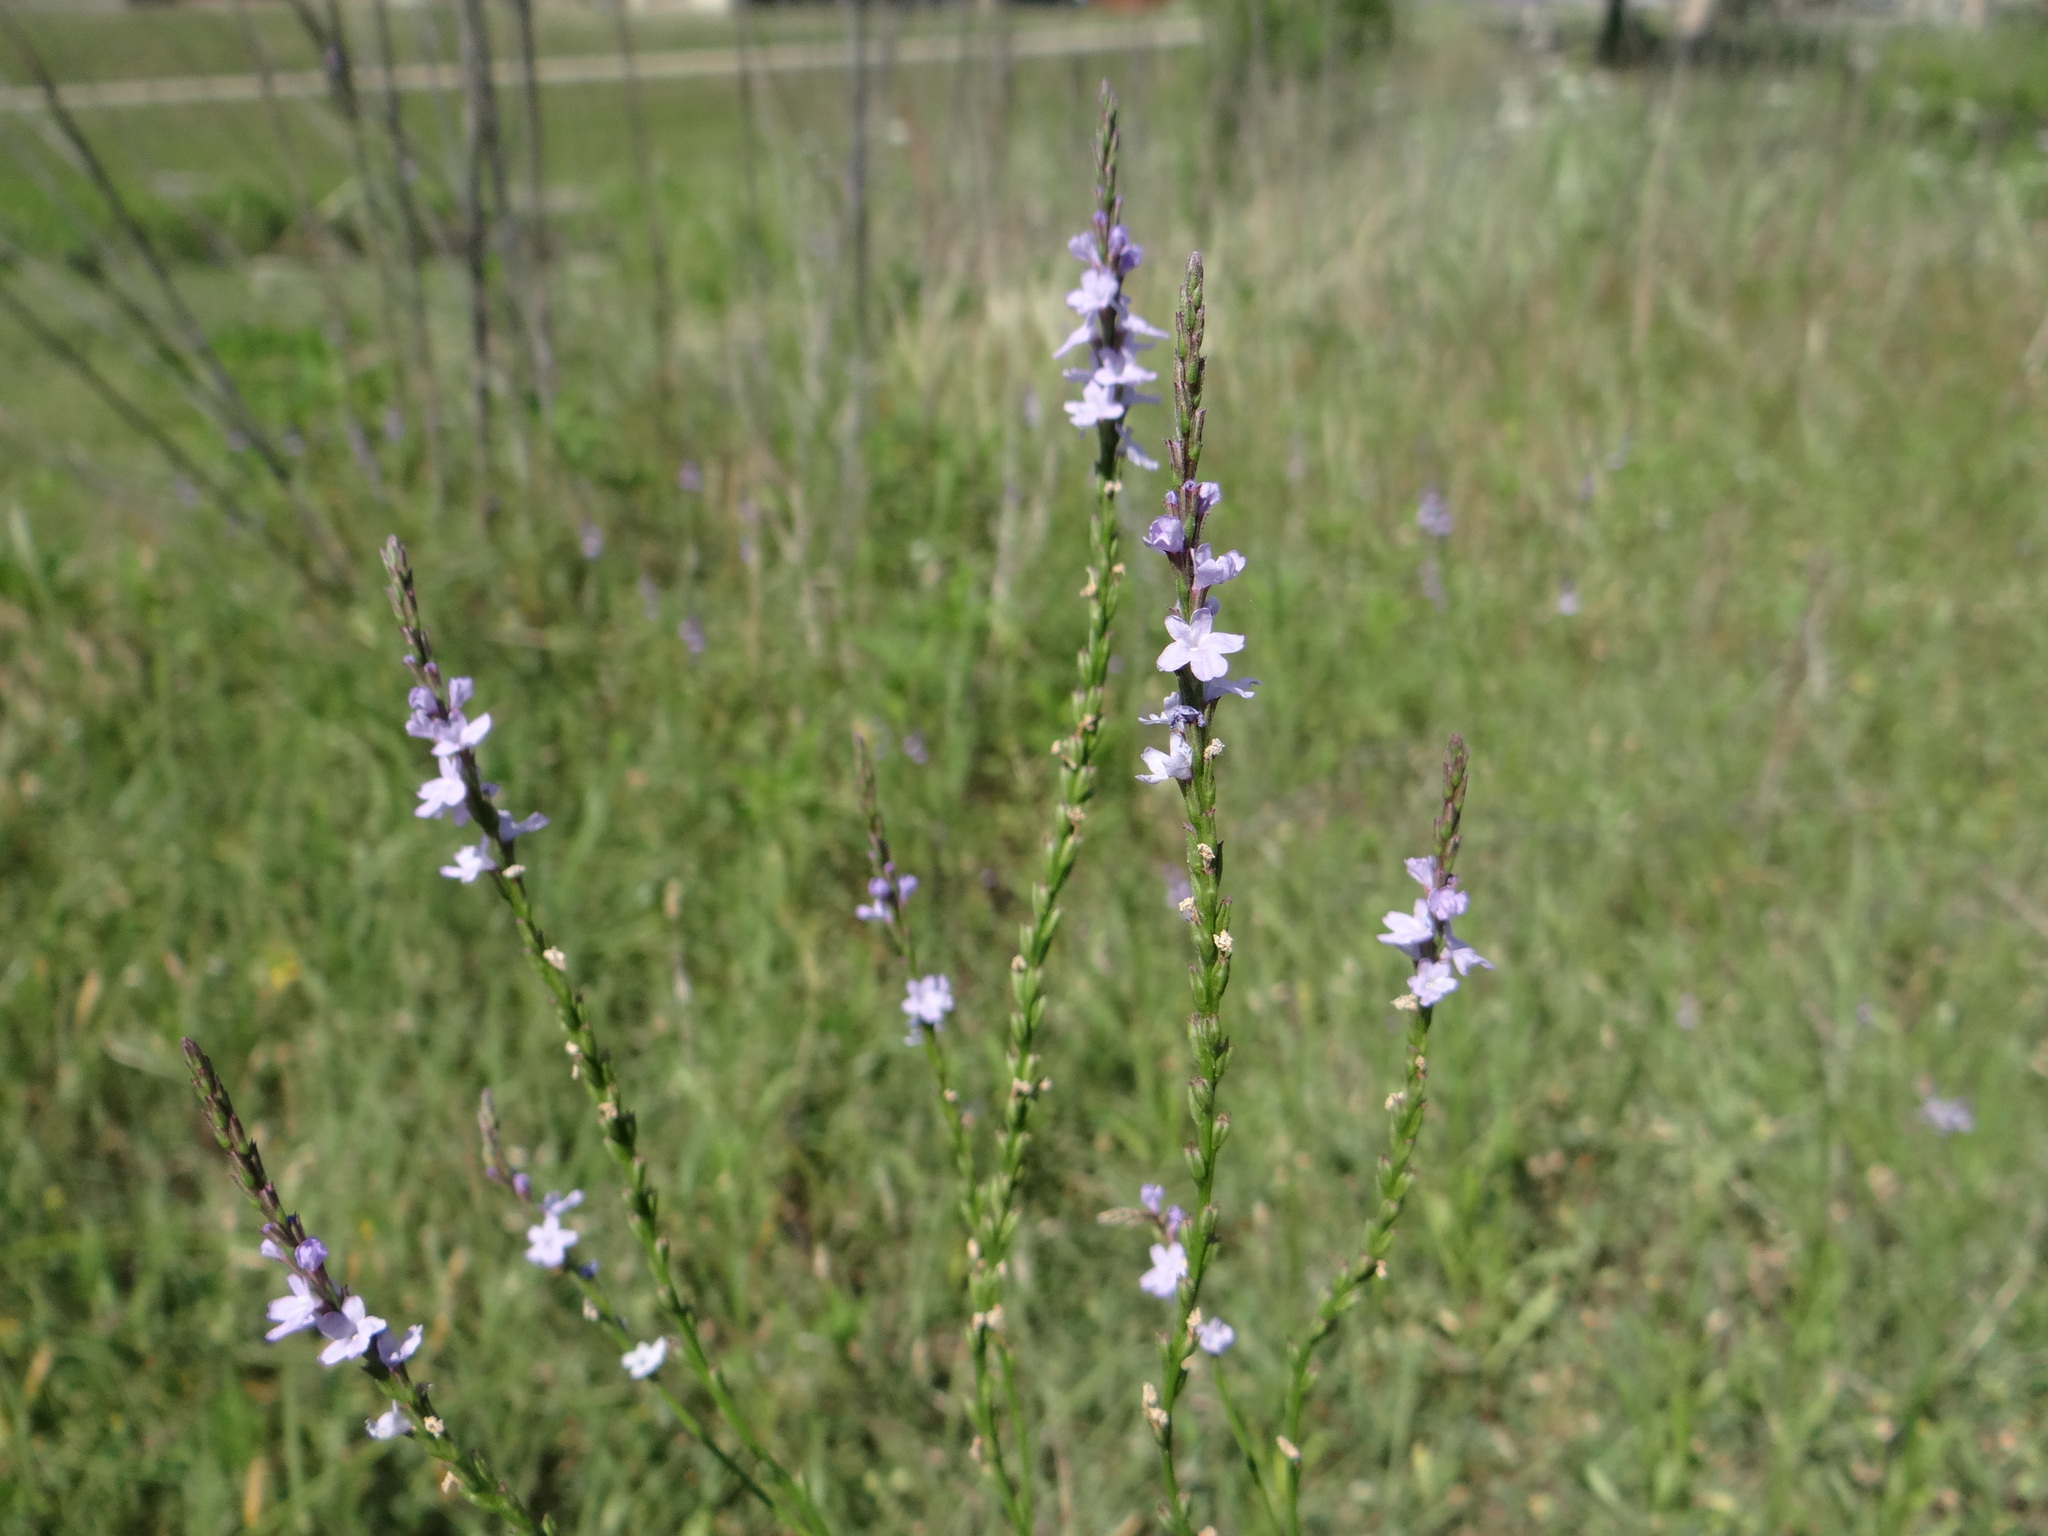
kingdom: Plantae
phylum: Tracheophyta
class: Magnoliopsida
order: Lamiales
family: Verbenaceae
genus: Verbena
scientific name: Verbena halei
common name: Texas vervain
